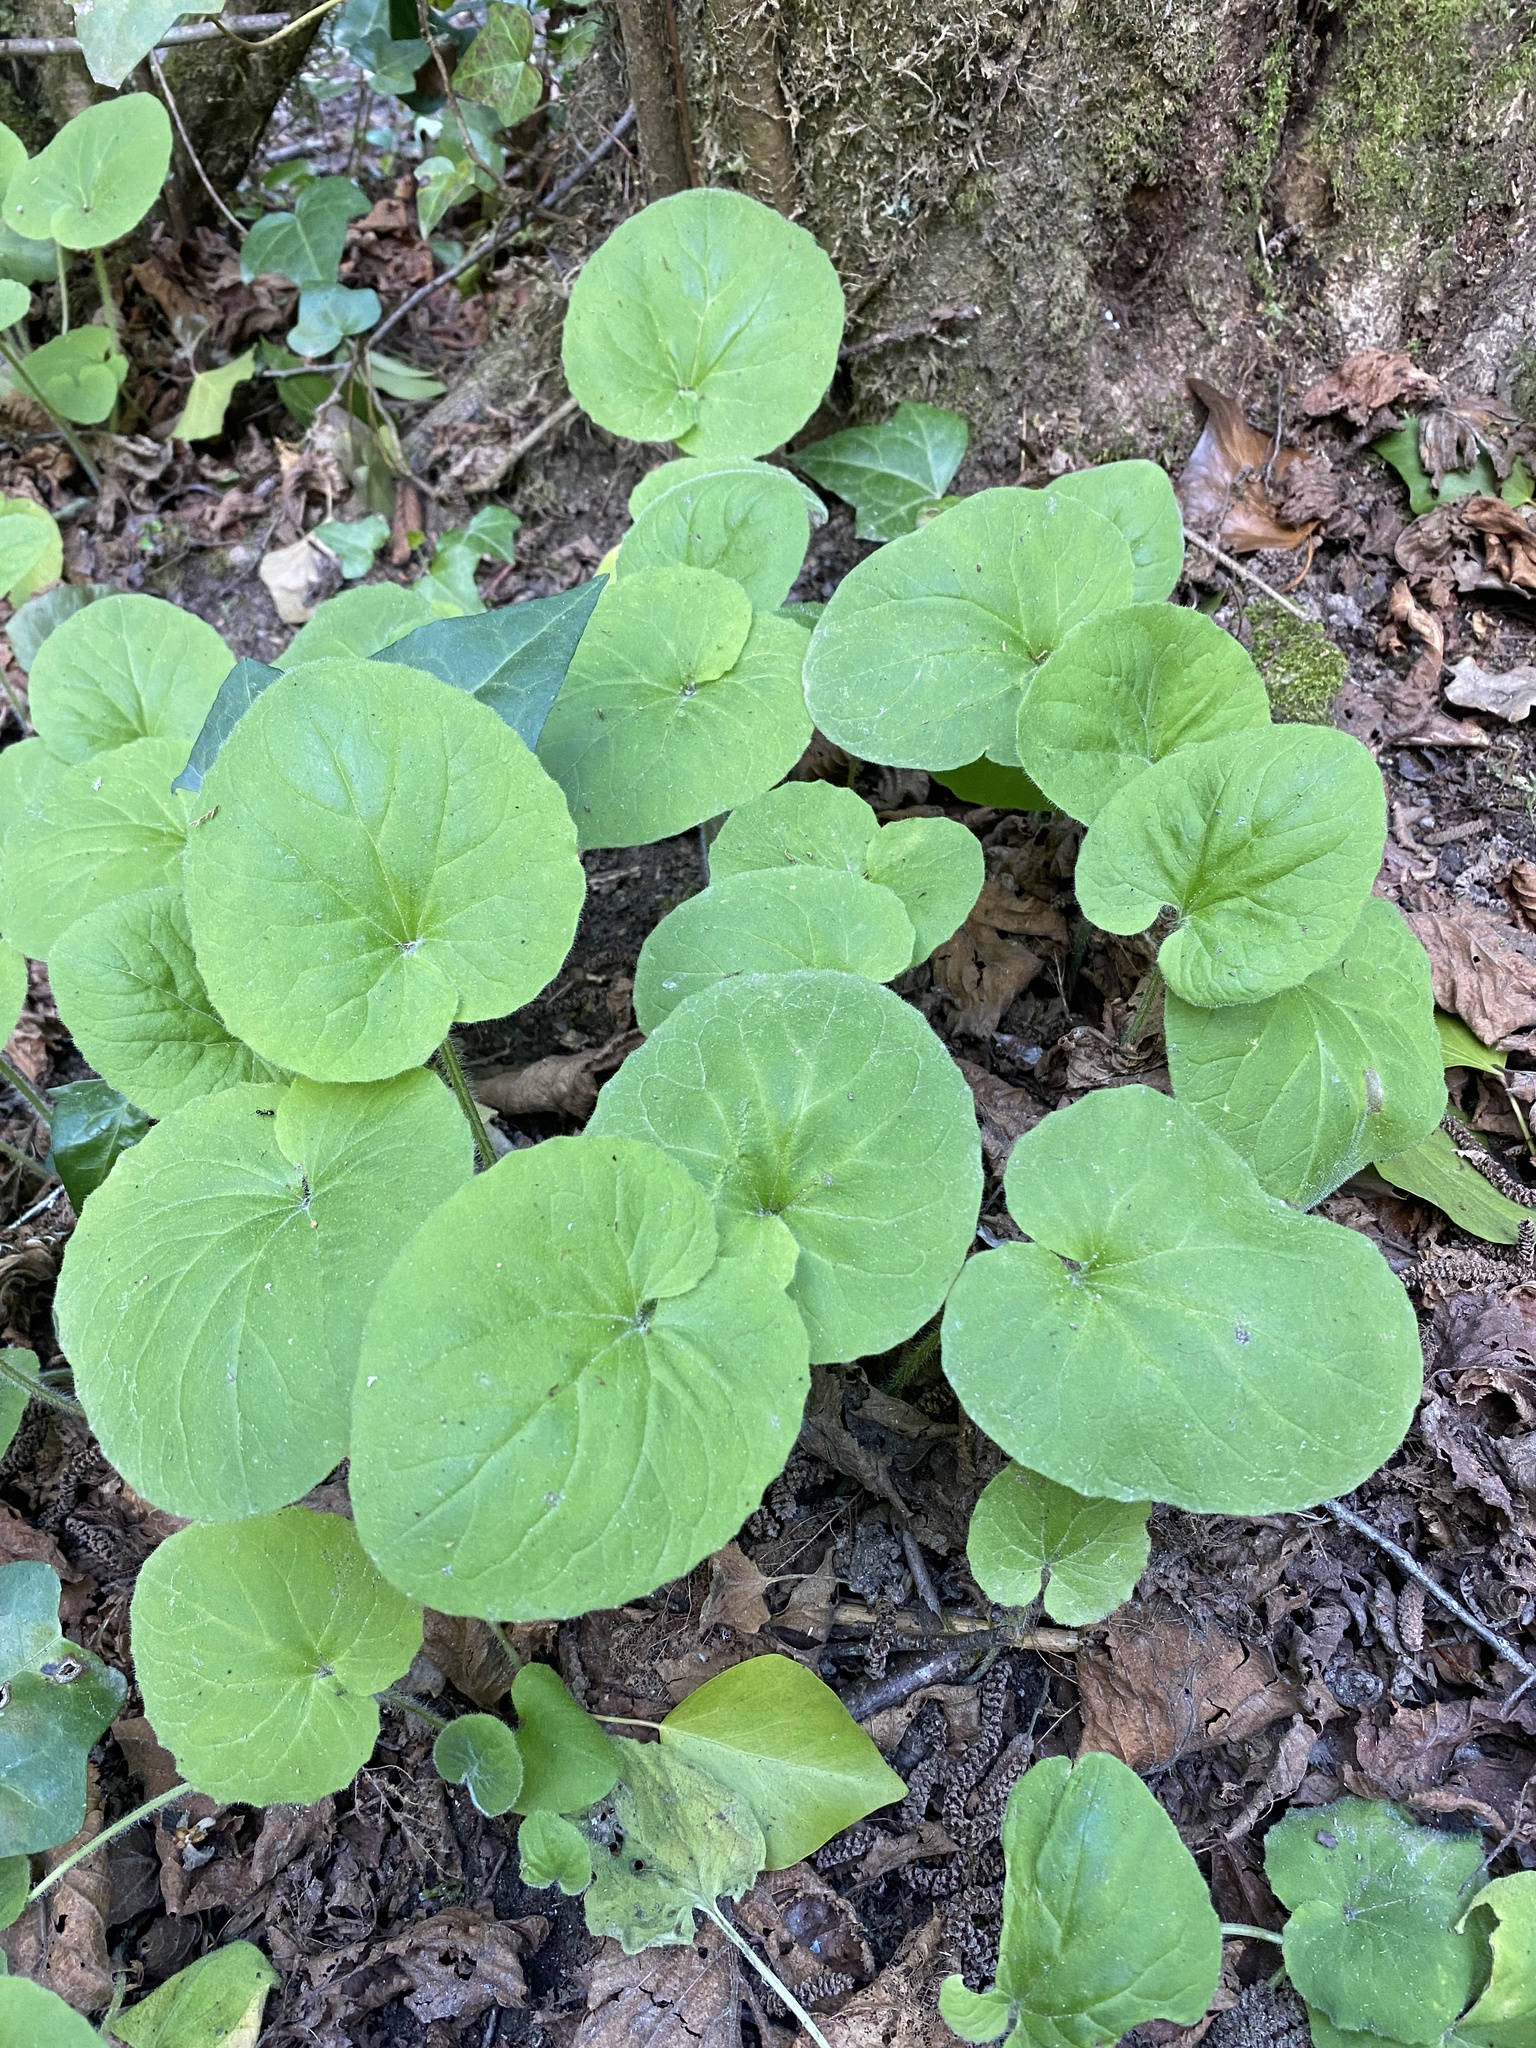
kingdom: Plantae
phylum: Tracheophyta
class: Magnoliopsida
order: Asterales
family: Asteraceae
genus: Doronicum
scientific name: Doronicum pardalianches
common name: Leopard's-bane
